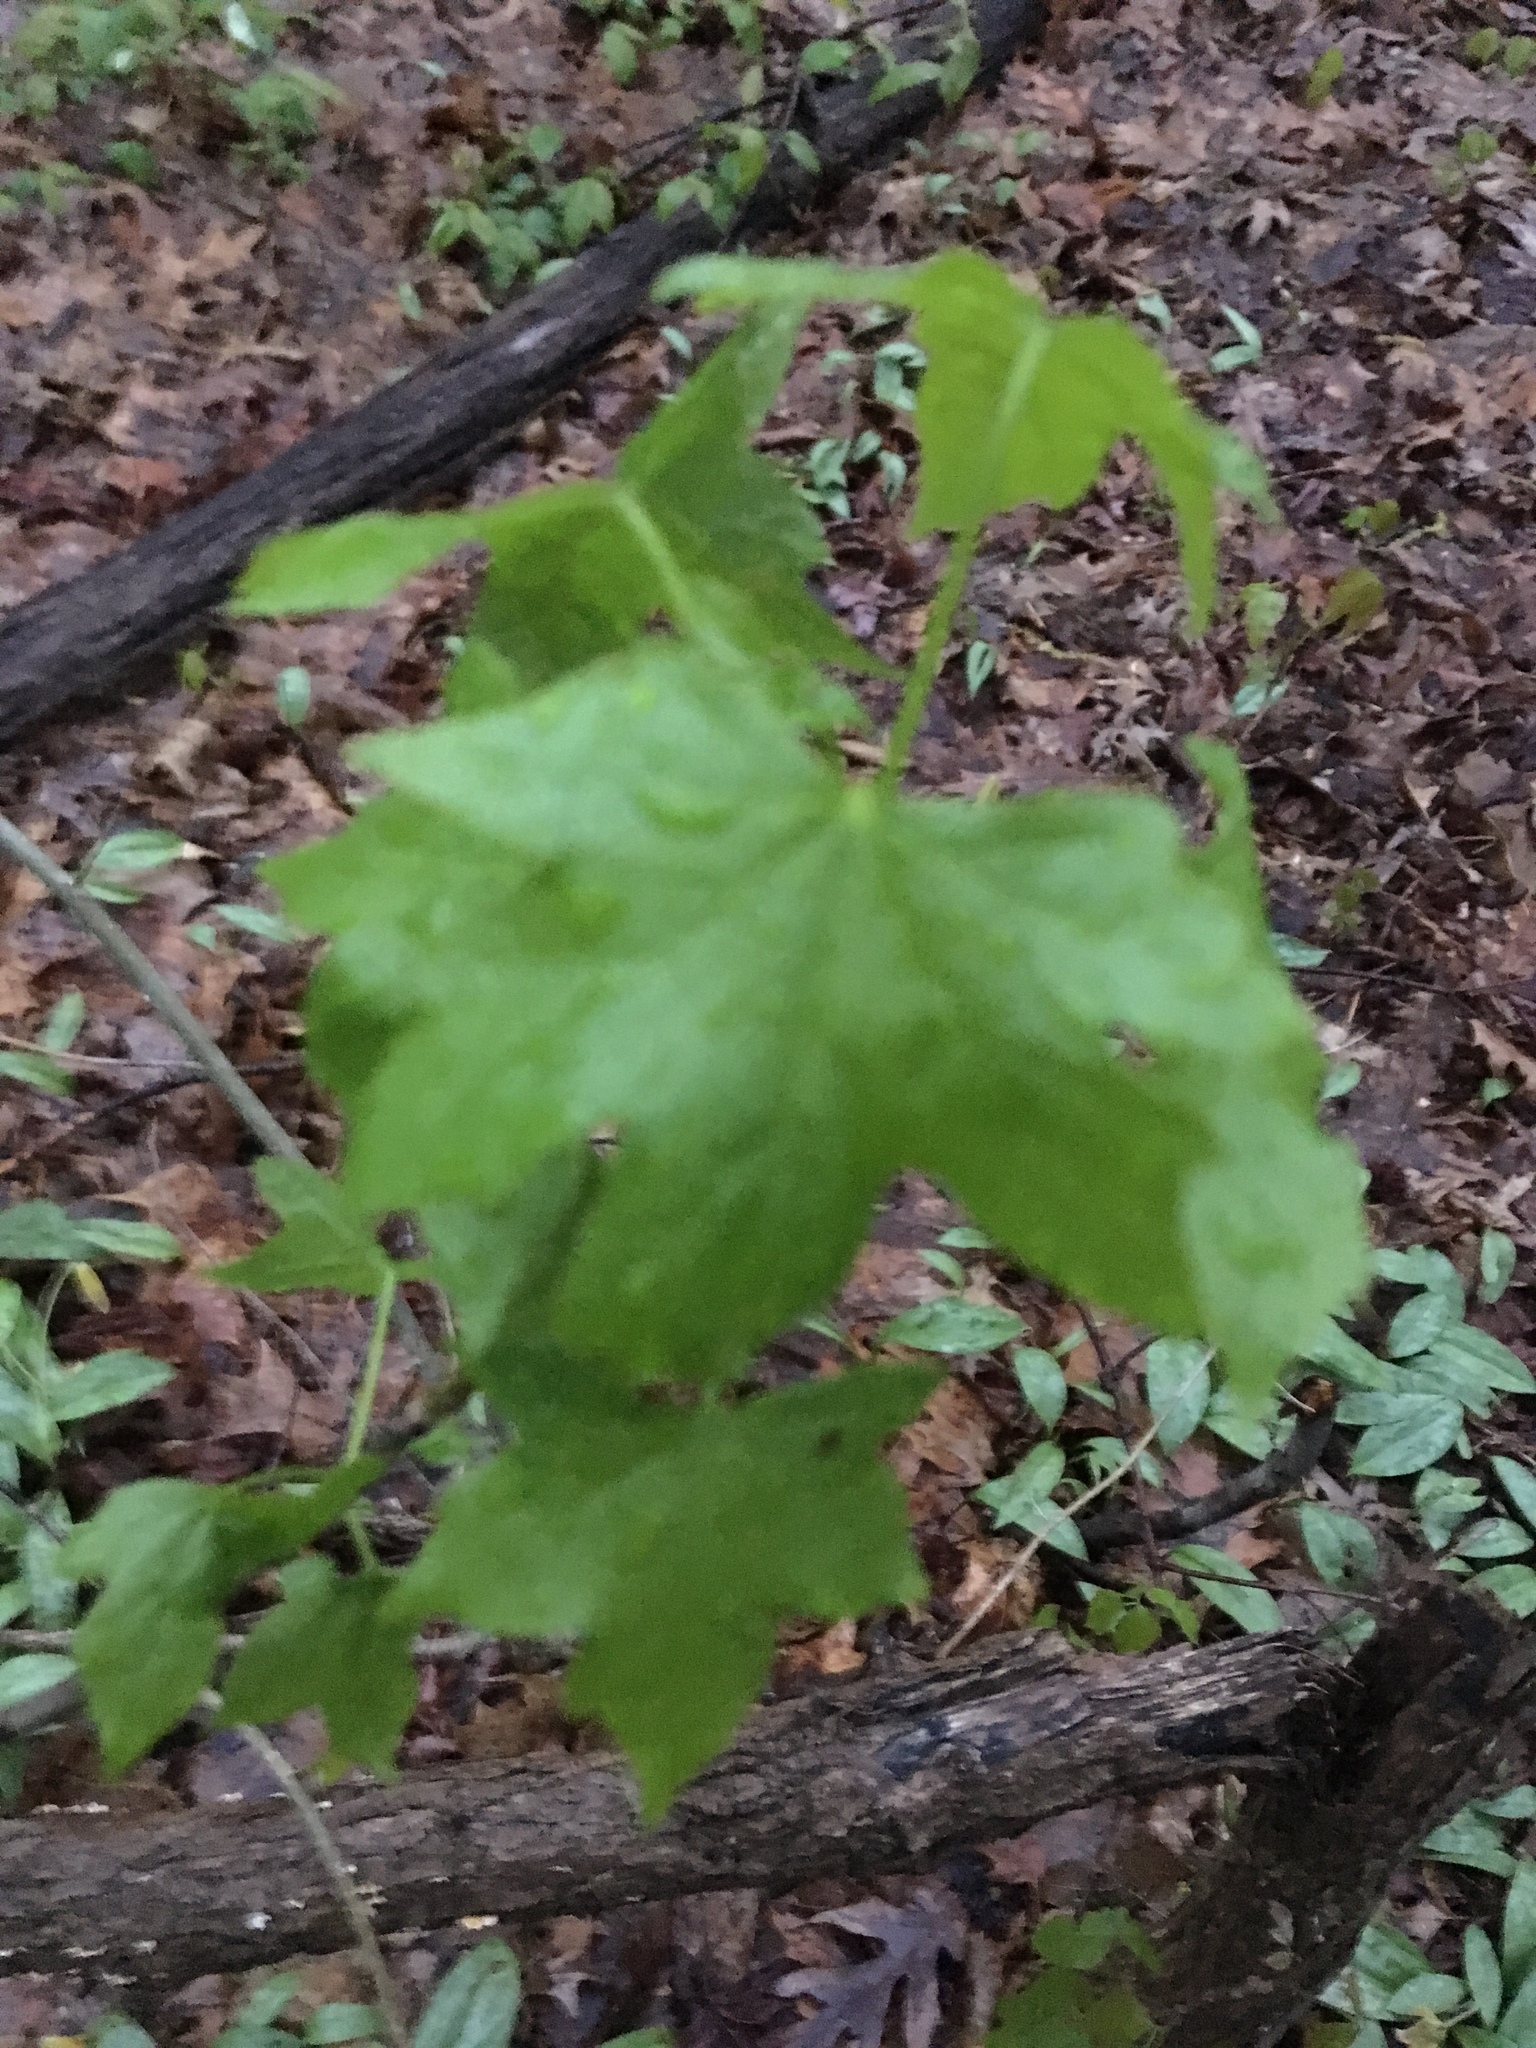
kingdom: Plantae
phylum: Tracheophyta
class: Magnoliopsida
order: Saxifragales
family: Altingiaceae
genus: Liquidambar
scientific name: Liquidambar styraciflua
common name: Sweet gum
